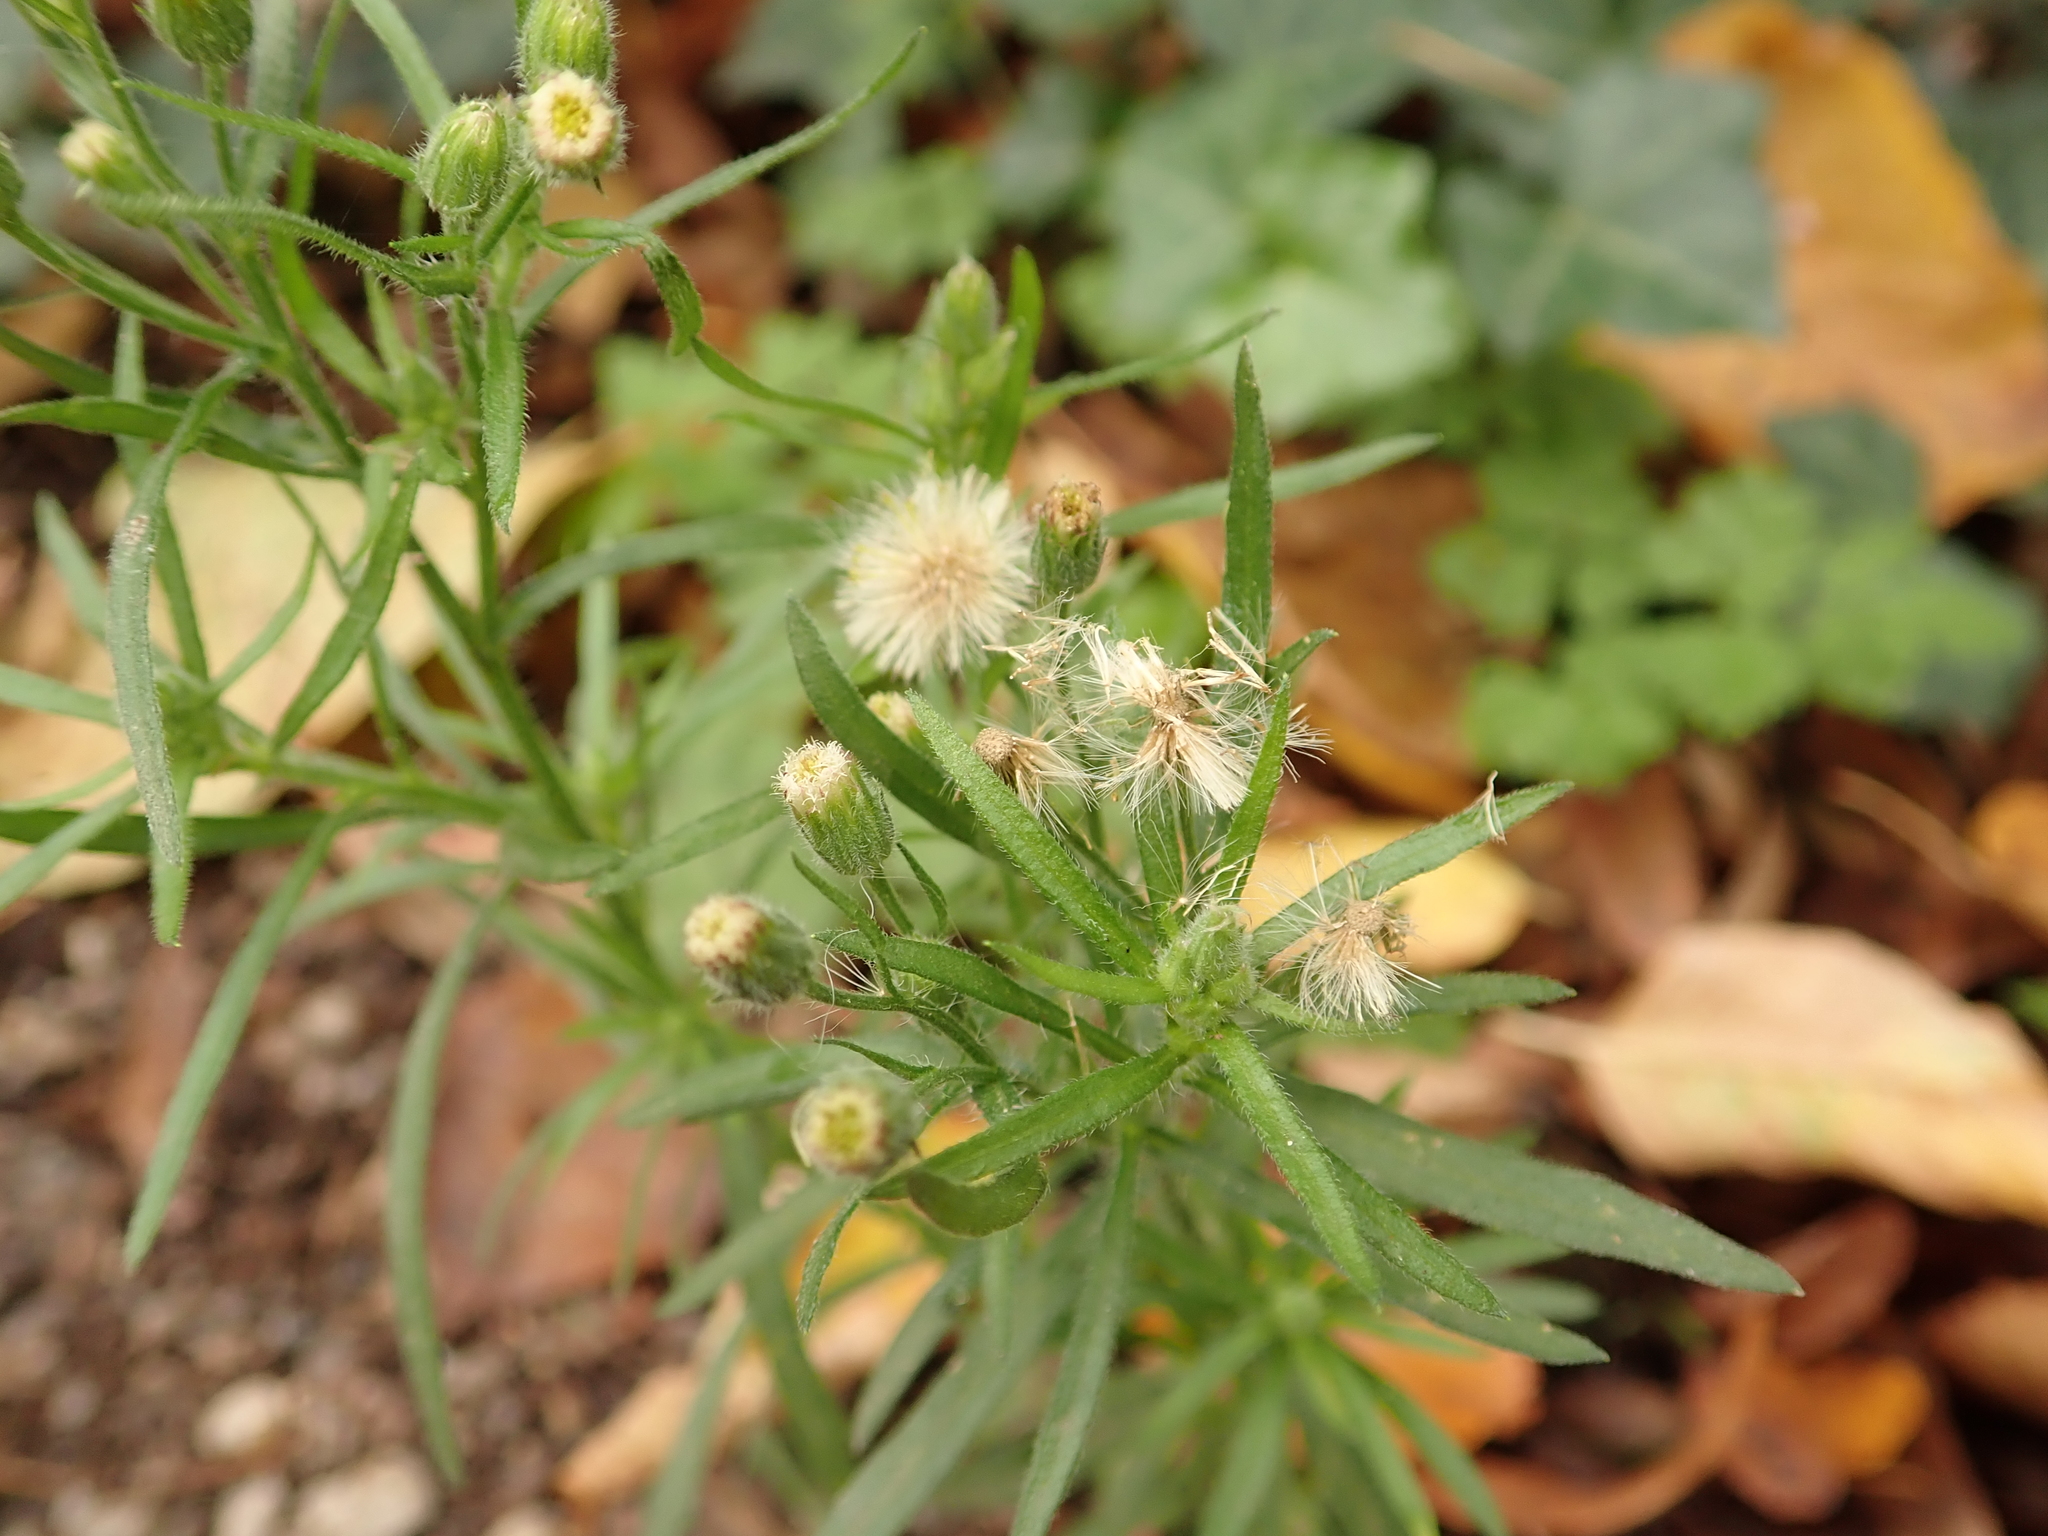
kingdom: Plantae
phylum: Tracheophyta
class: Magnoliopsida
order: Asterales
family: Asteraceae
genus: Erigeron
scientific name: Erigeron bonariensis
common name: Argentine fleabane
